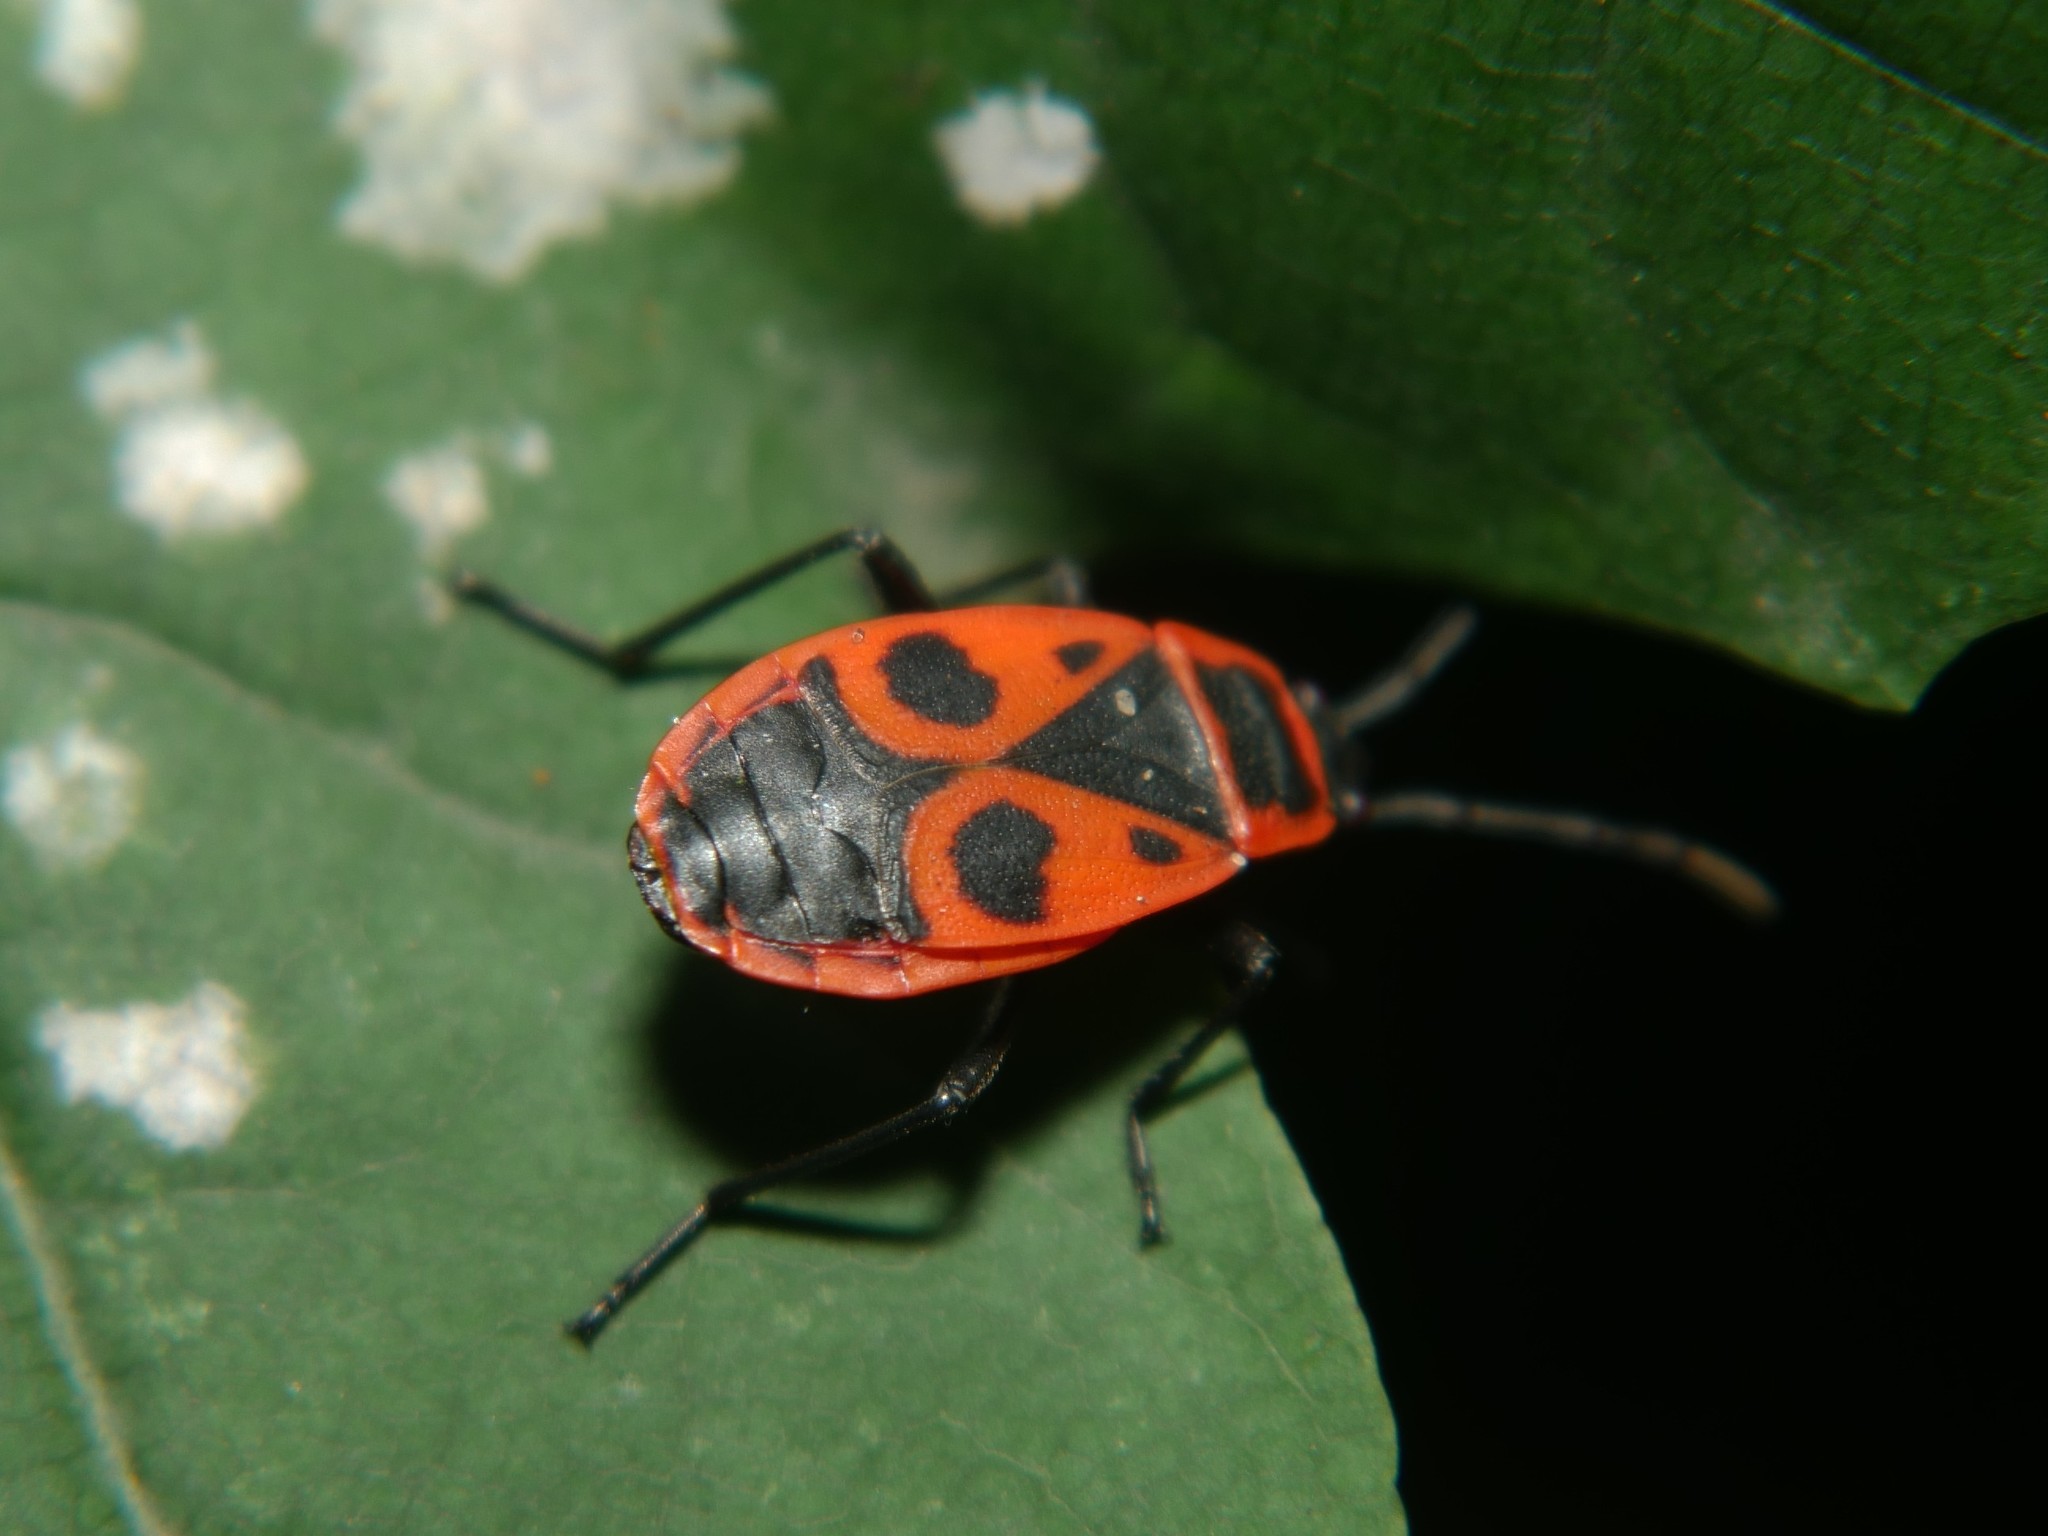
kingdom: Animalia
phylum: Arthropoda
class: Insecta
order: Hemiptera
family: Pyrrhocoridae
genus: Pyrrhocoris
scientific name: Pyrrhocoris apterus
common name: Firebug
